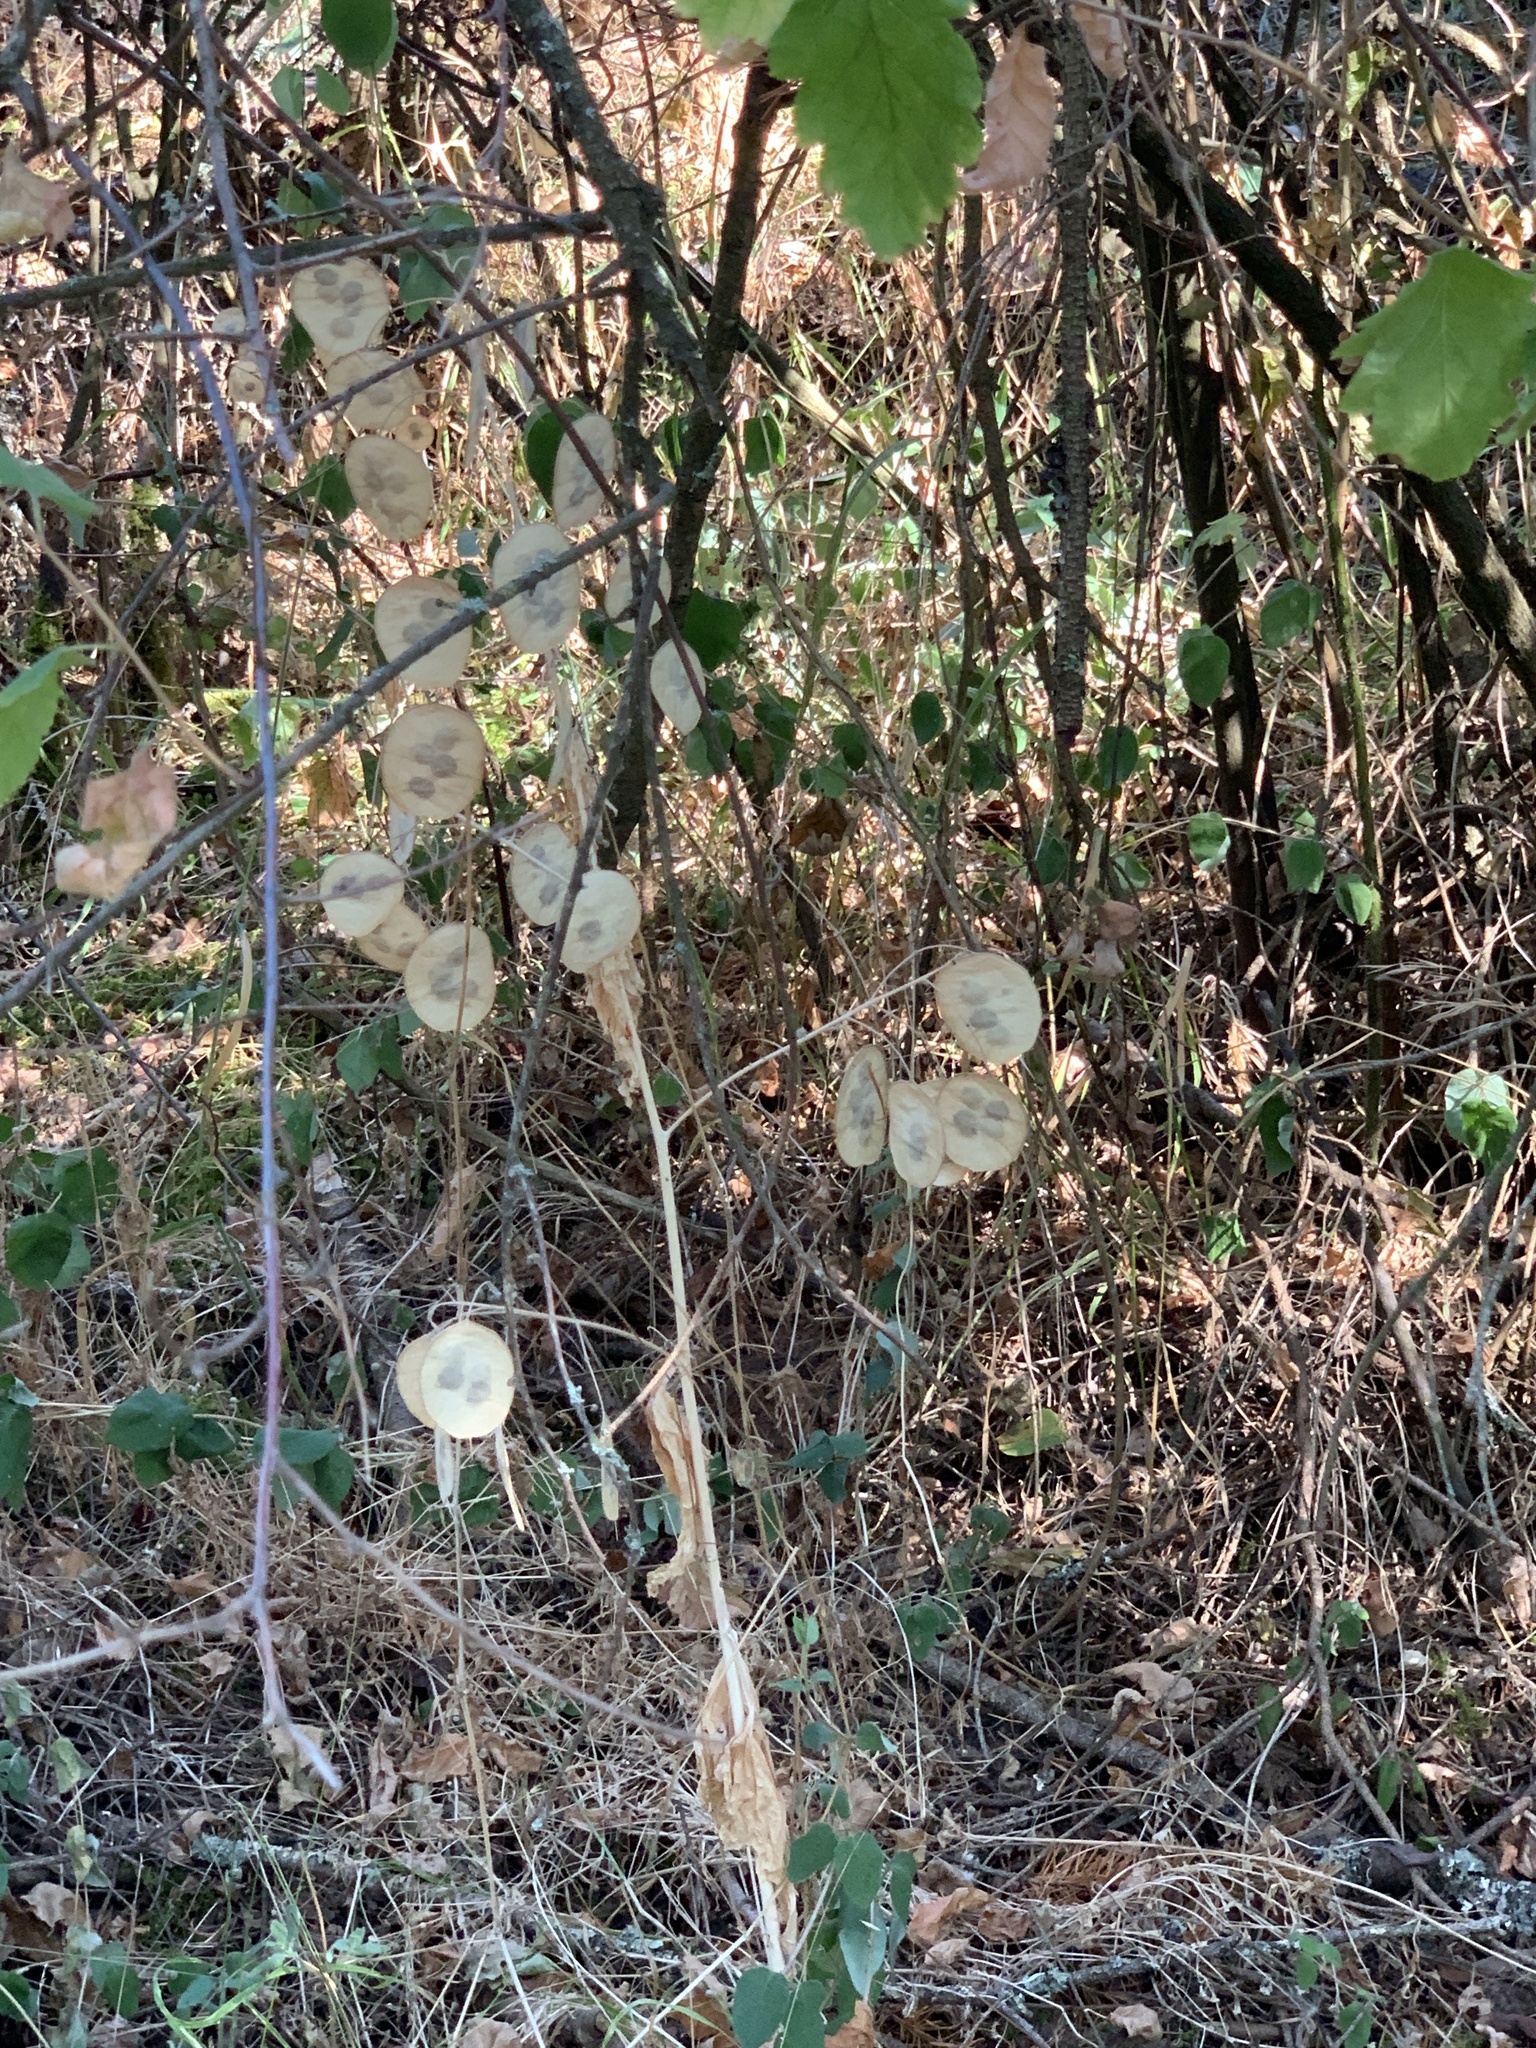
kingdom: Plantae
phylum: Tracheophyta
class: Magnoliopsida
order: Brassicales
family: Brassicaceae
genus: Lunaria
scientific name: Lunaria annua
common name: Honesty
